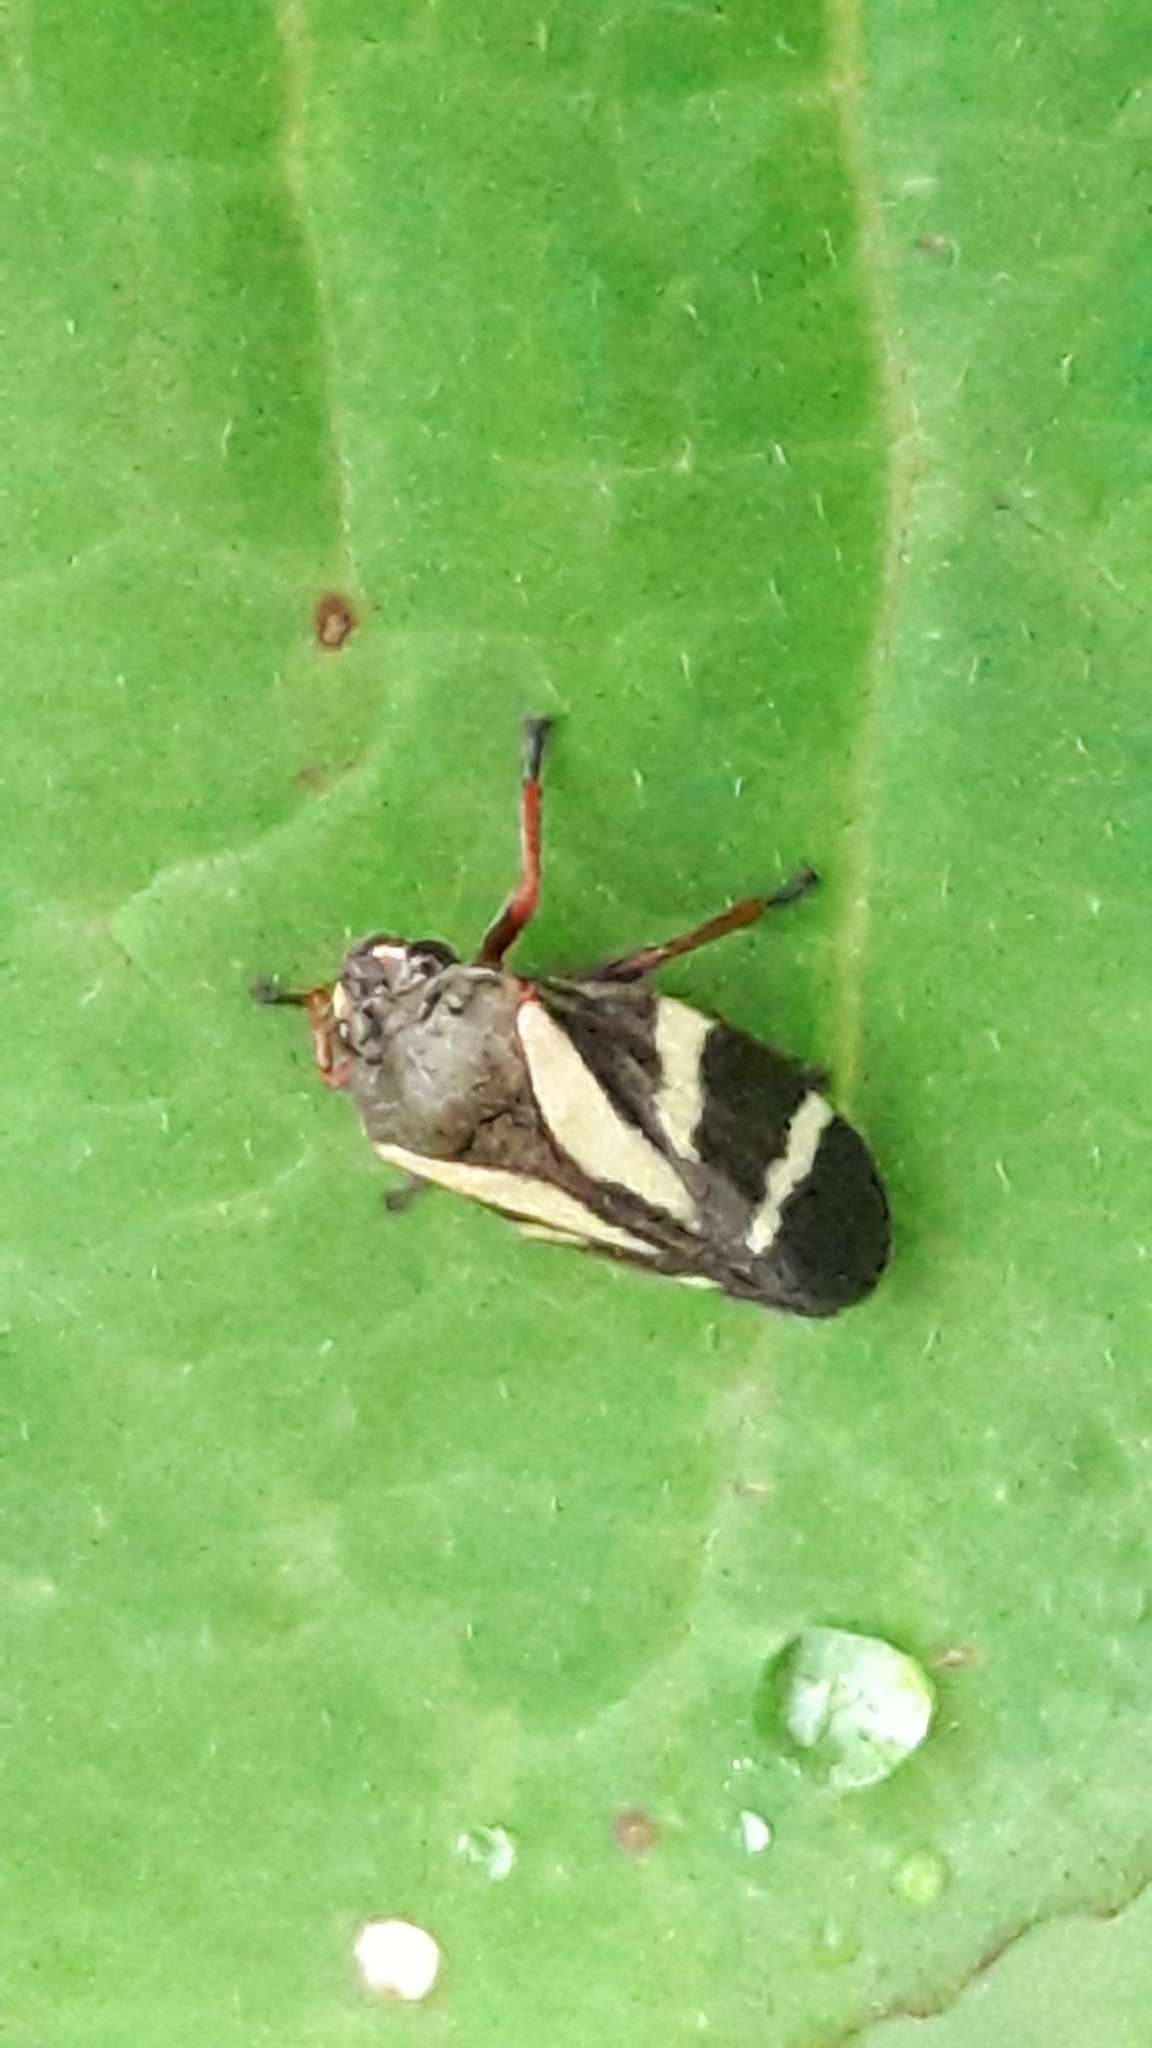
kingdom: Animalia
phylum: Arthropoda
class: Insecta
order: Hemiptera
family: Cercopidae
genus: Deois
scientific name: Deois flavopicta
